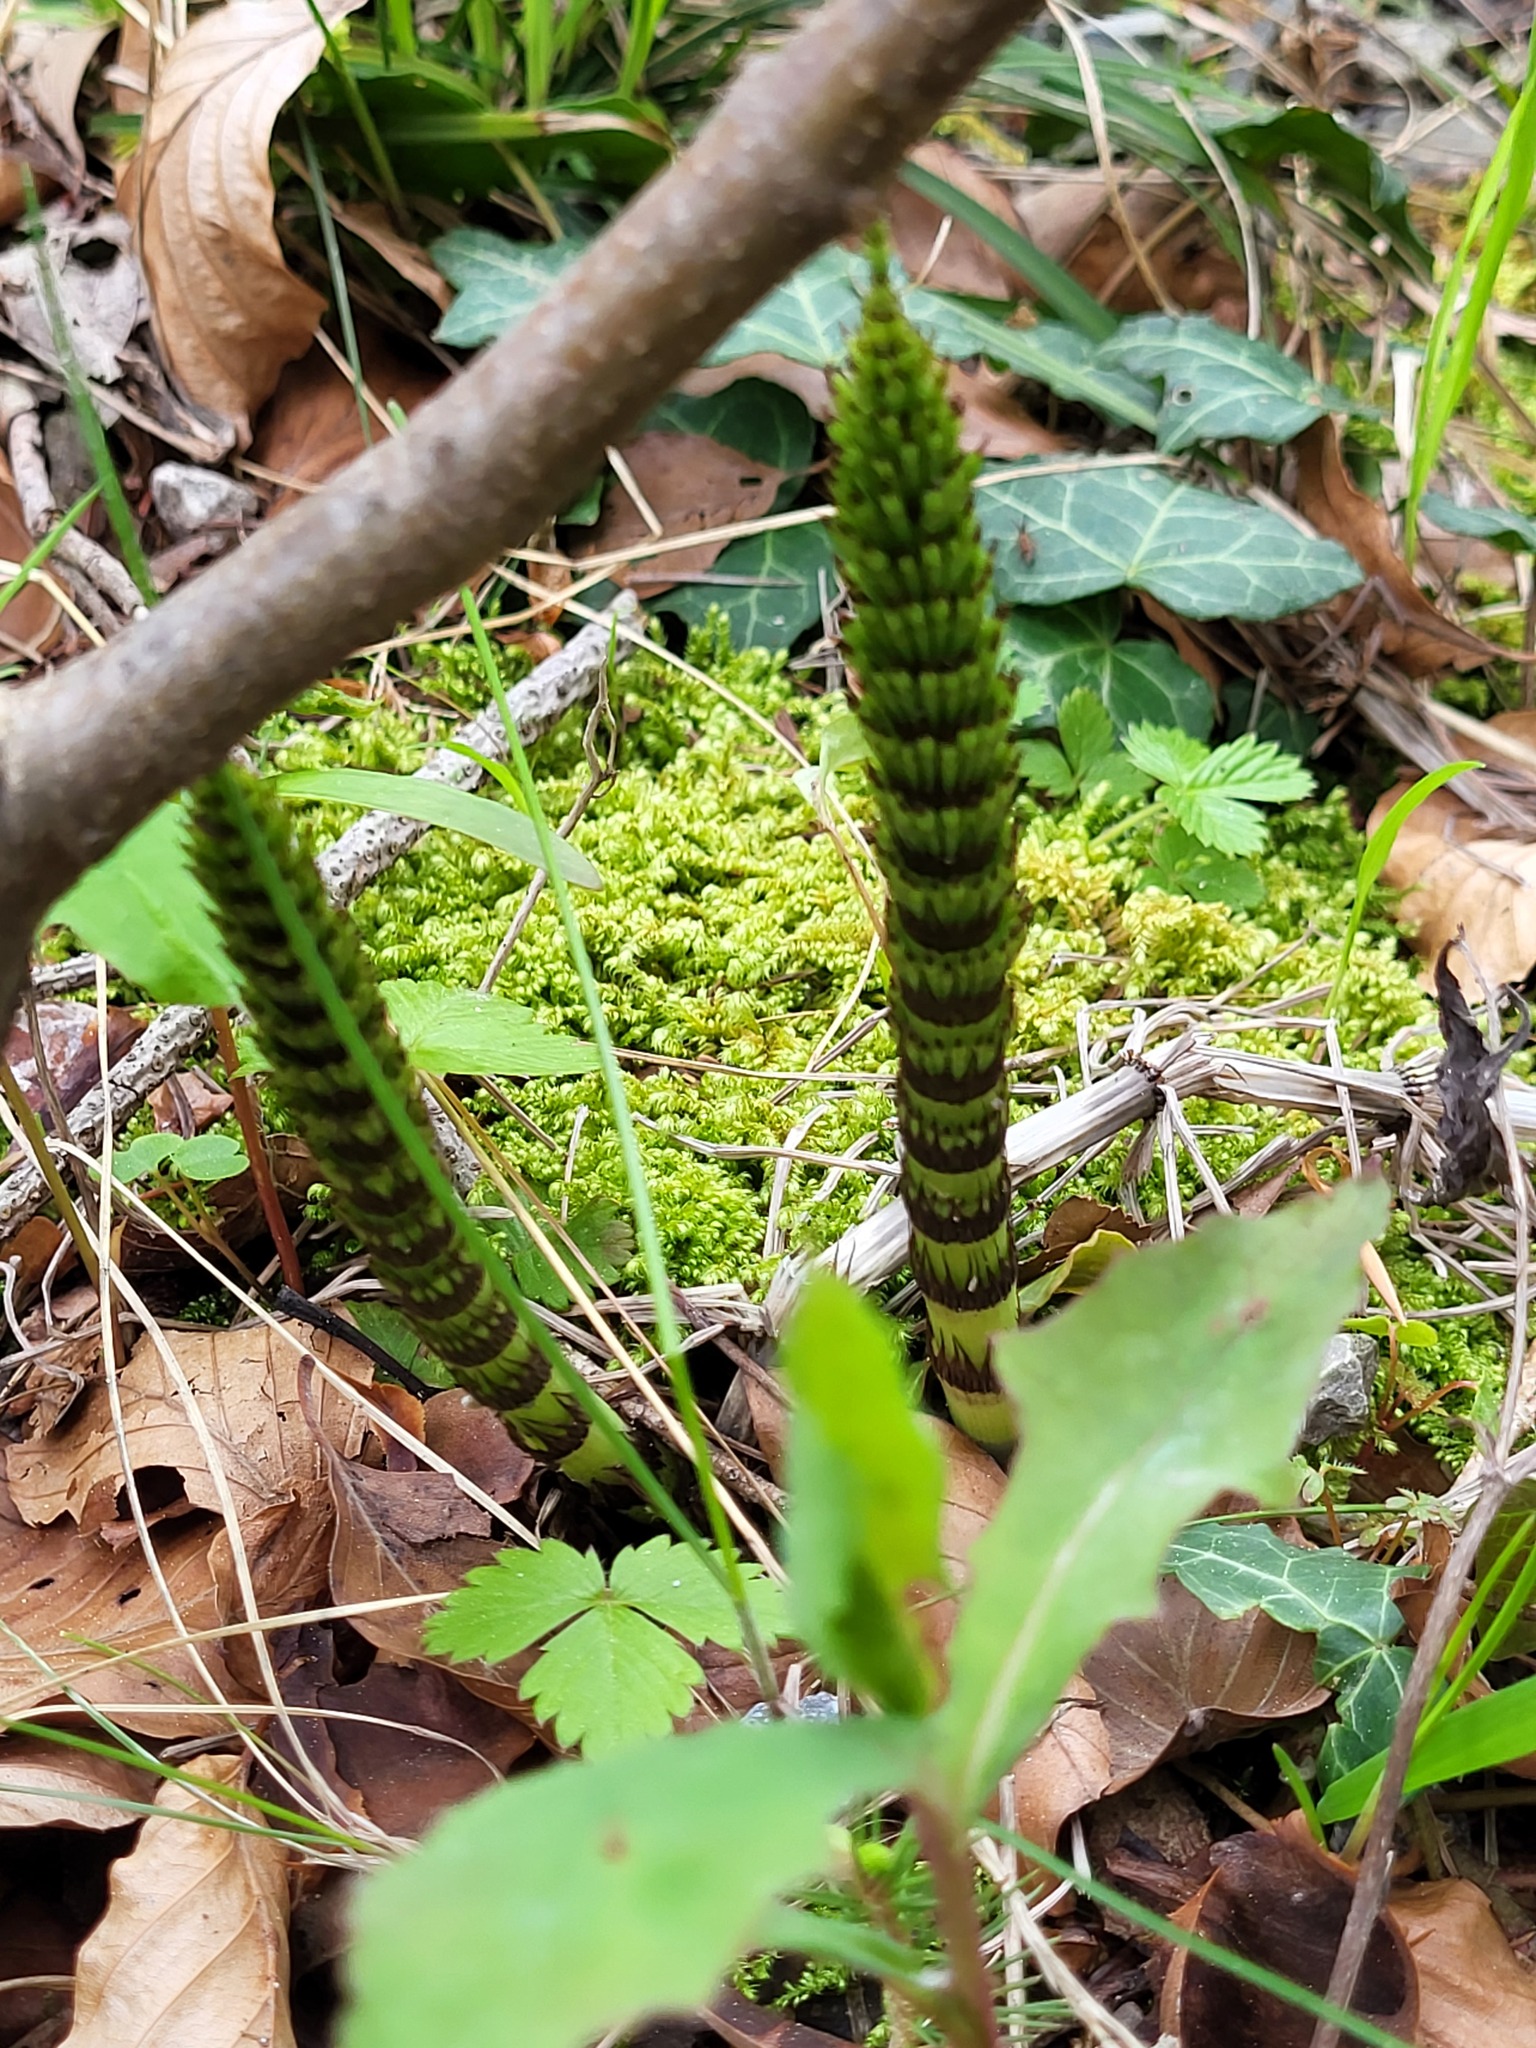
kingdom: Plantae
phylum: Tracheophyta
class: Polypodiopsida
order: Equisetales
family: Equisetaceae
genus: Equisetum
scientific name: Equisetum telmateia
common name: Great horsetail
